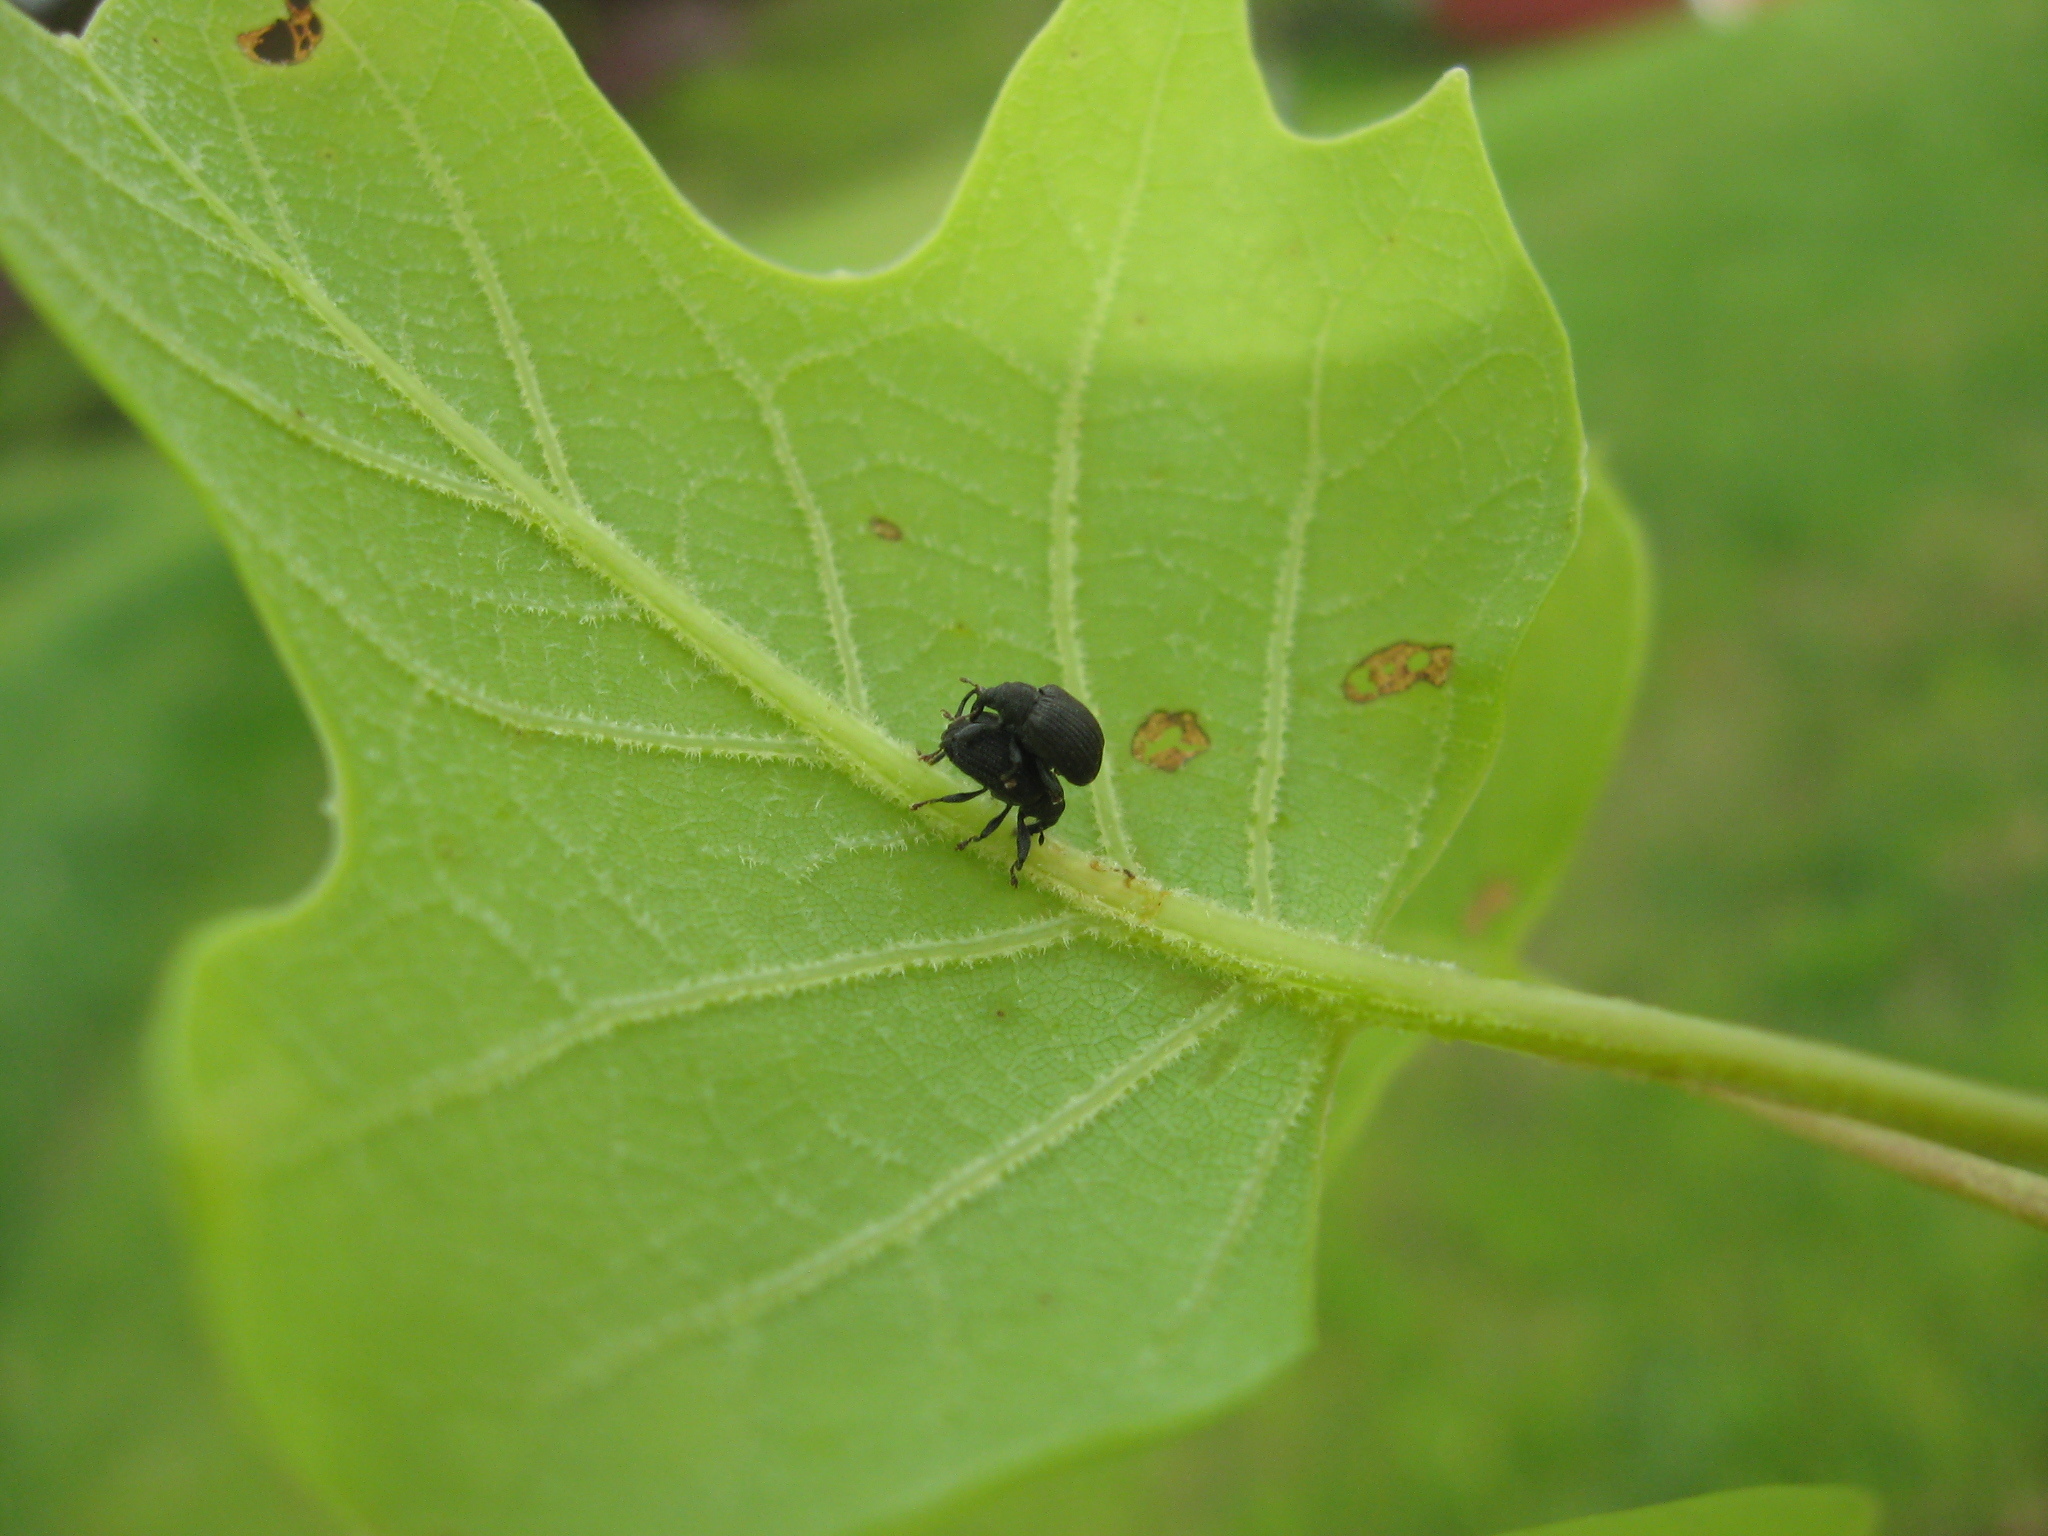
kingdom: Animalia
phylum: Arthropoda
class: Insecta
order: Coleoptera
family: Curculionidae
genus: Odontopus
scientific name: Odontopus calceatus
